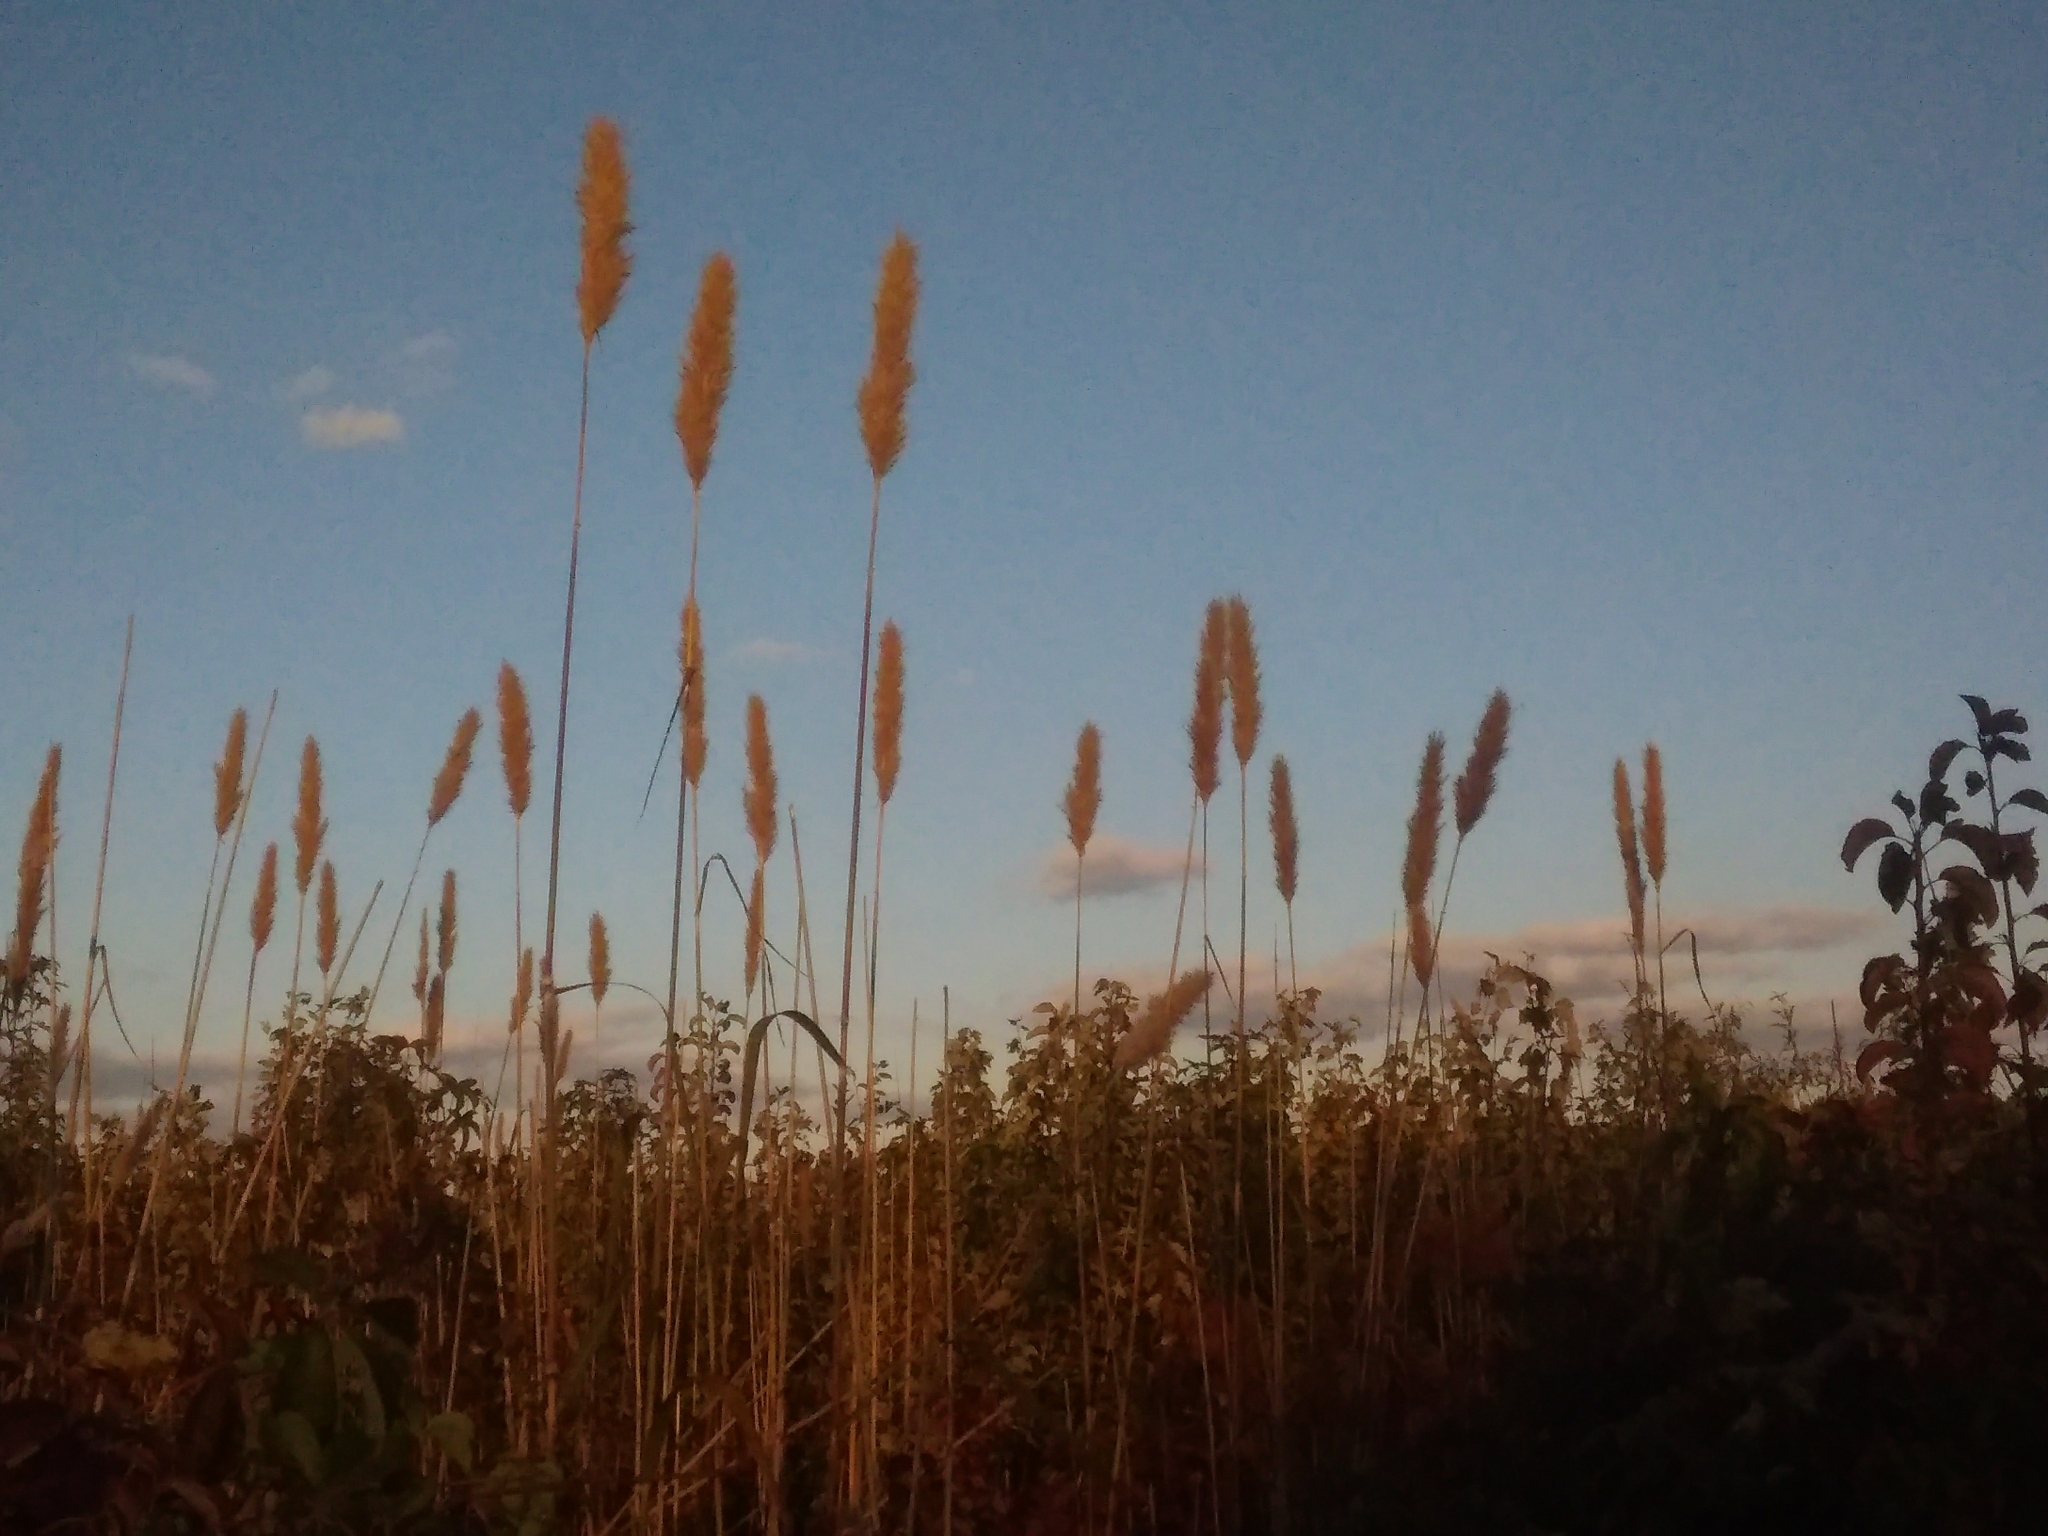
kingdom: Plantae
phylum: Tracheophyta
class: Liliopsida
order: Poales
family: Poaceae
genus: Erianthus
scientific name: Erianthus giganteus
